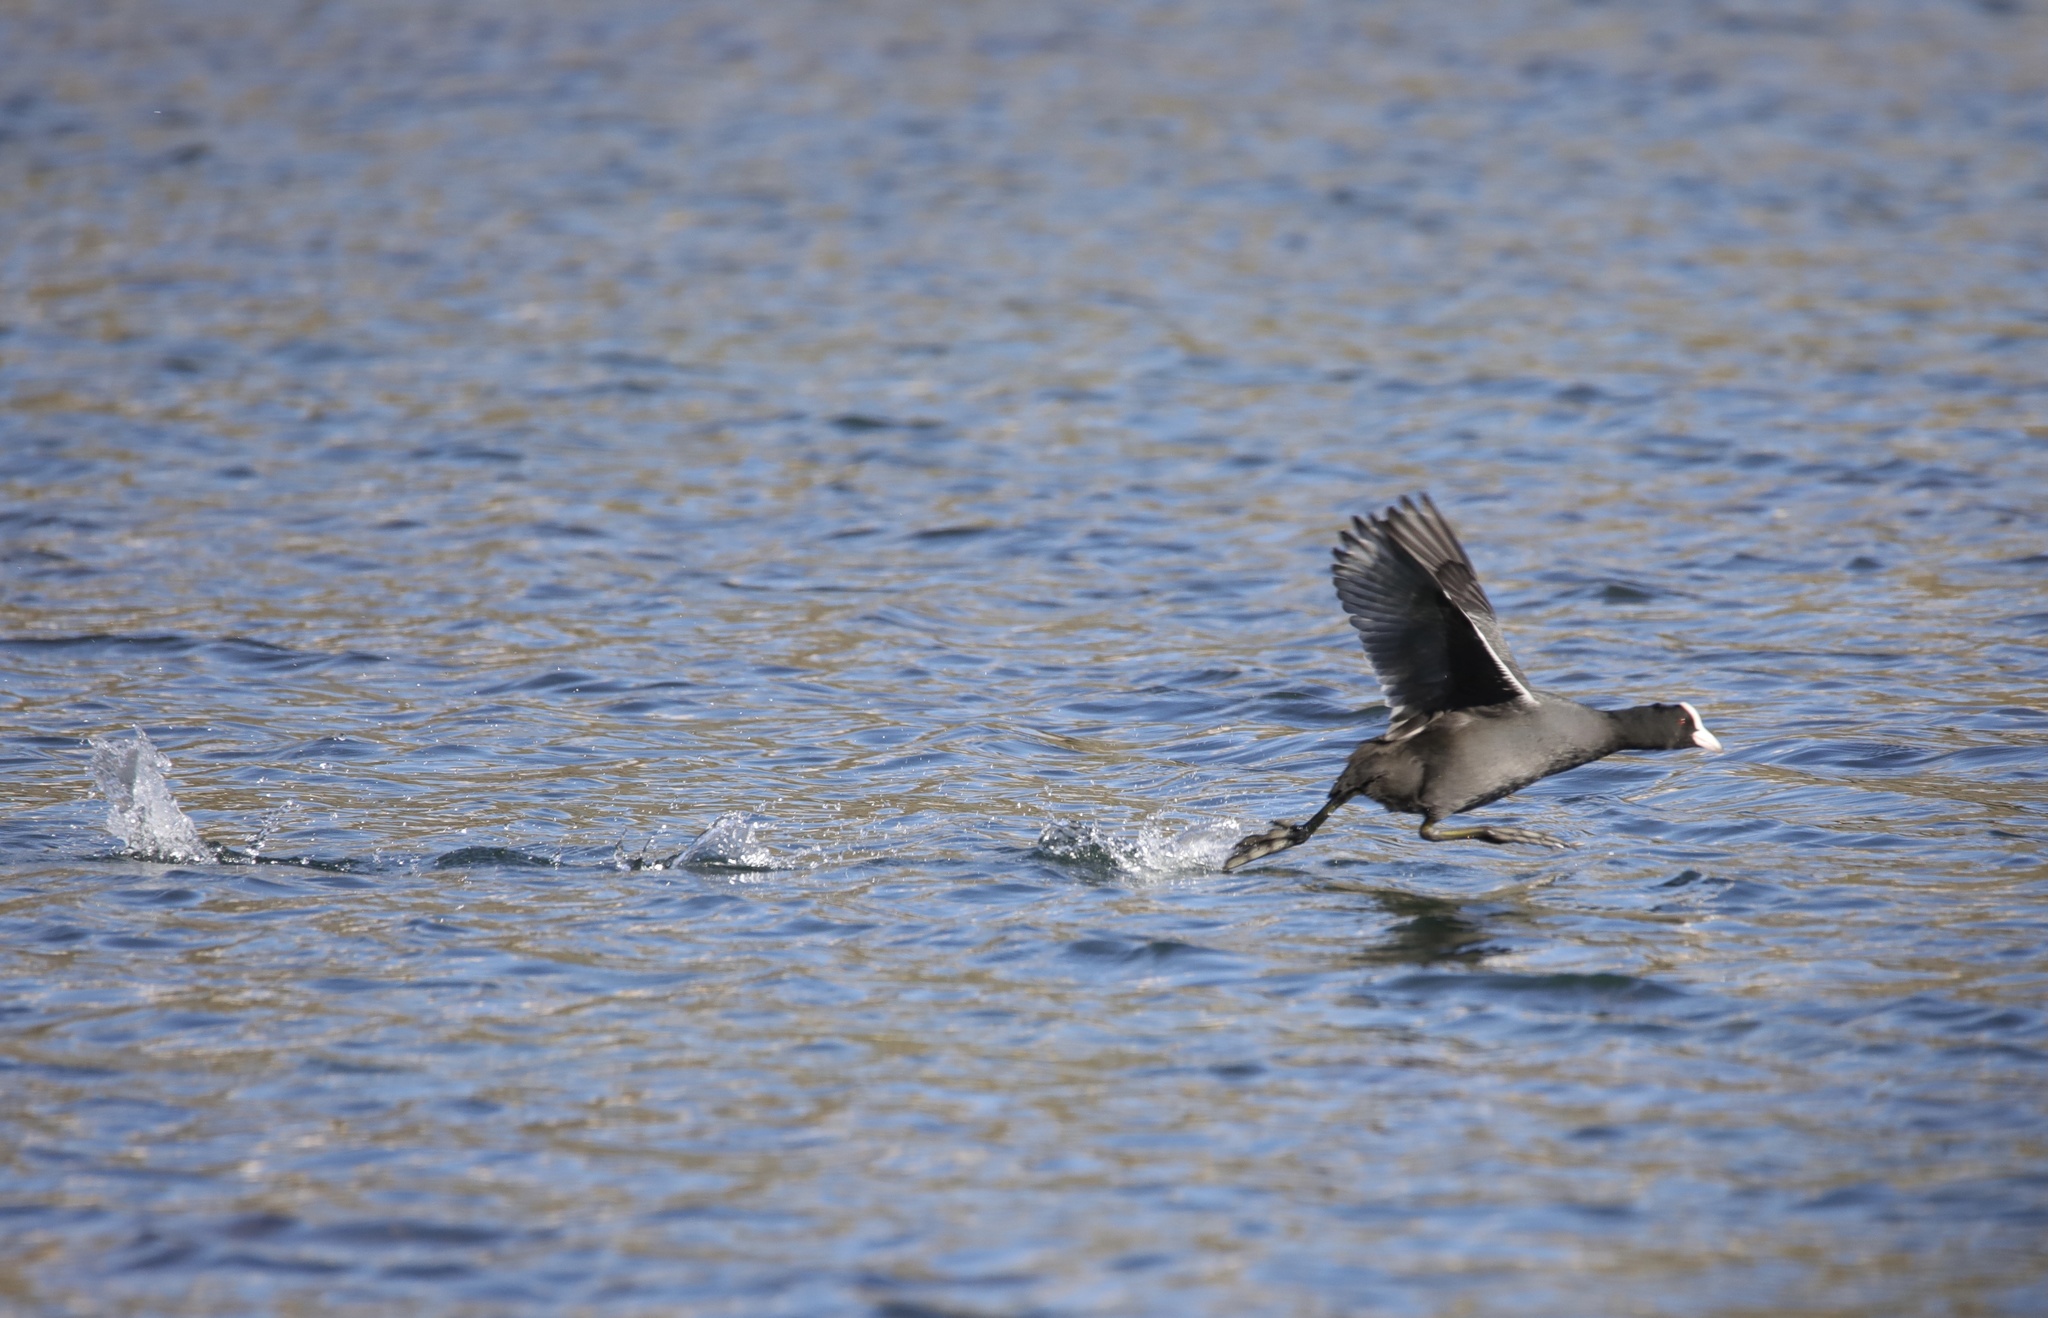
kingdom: Animalia
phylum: Chordata
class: Aves
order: Gruiformes
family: Rallidae
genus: Fulica
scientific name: Fulica atra
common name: Eurasian coot
